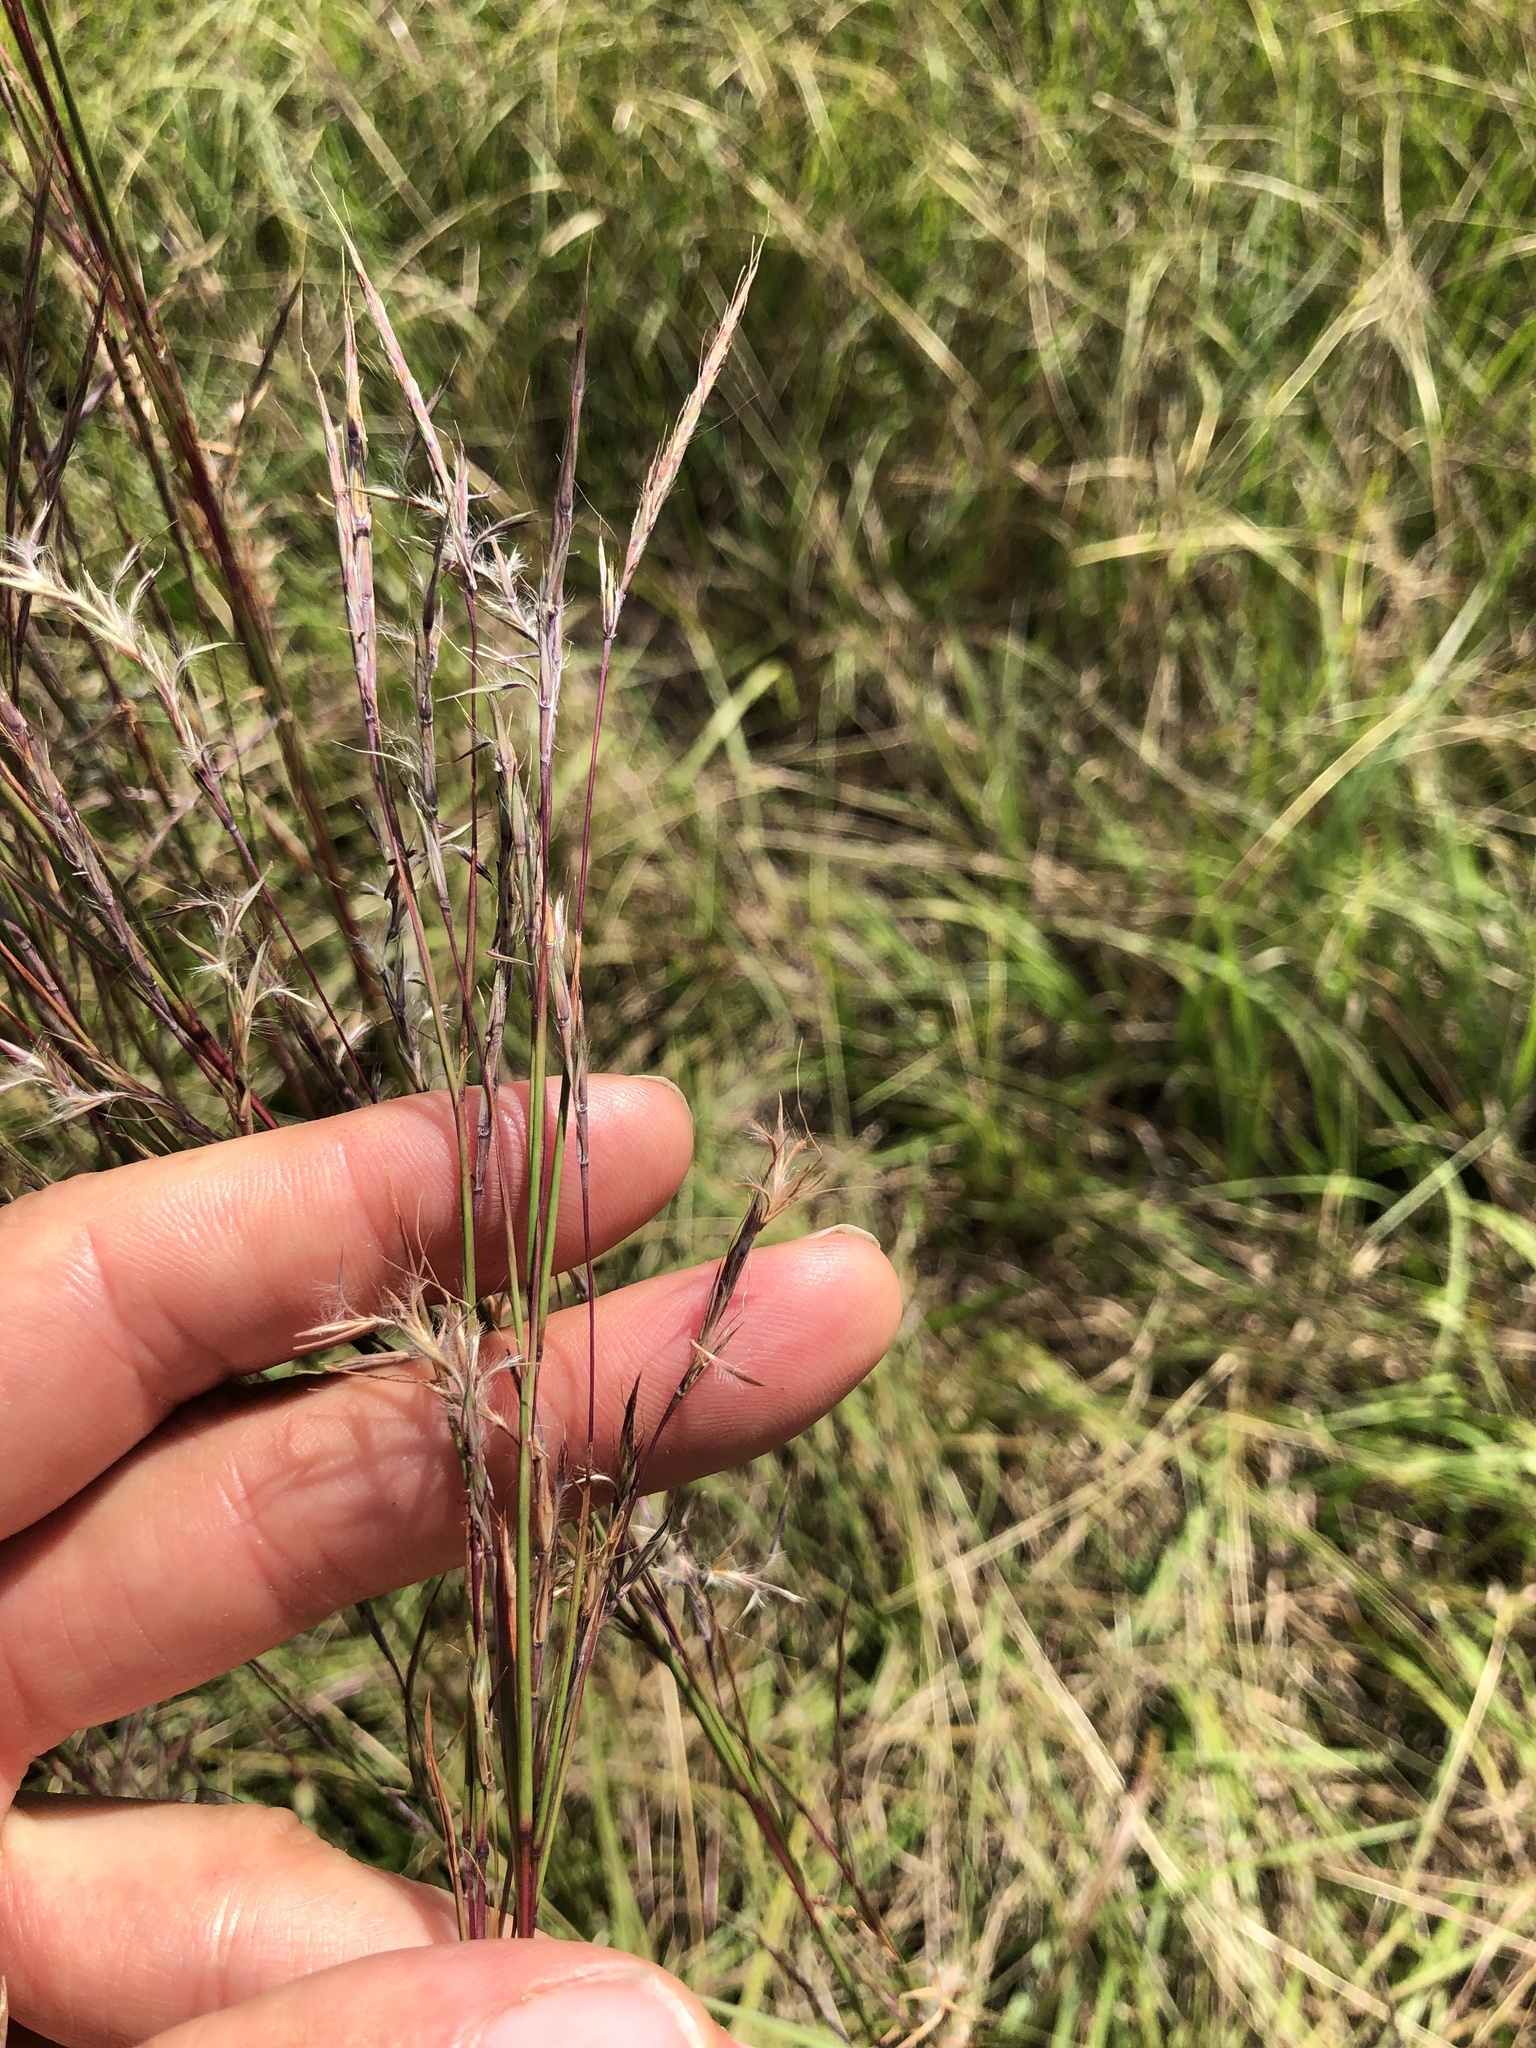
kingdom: Plantae
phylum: Tracheophyta
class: Liliopsida
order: Poales
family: Poaceae
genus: Schizachyrium
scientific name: Schizachyrium scoparium
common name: Little bluestem
